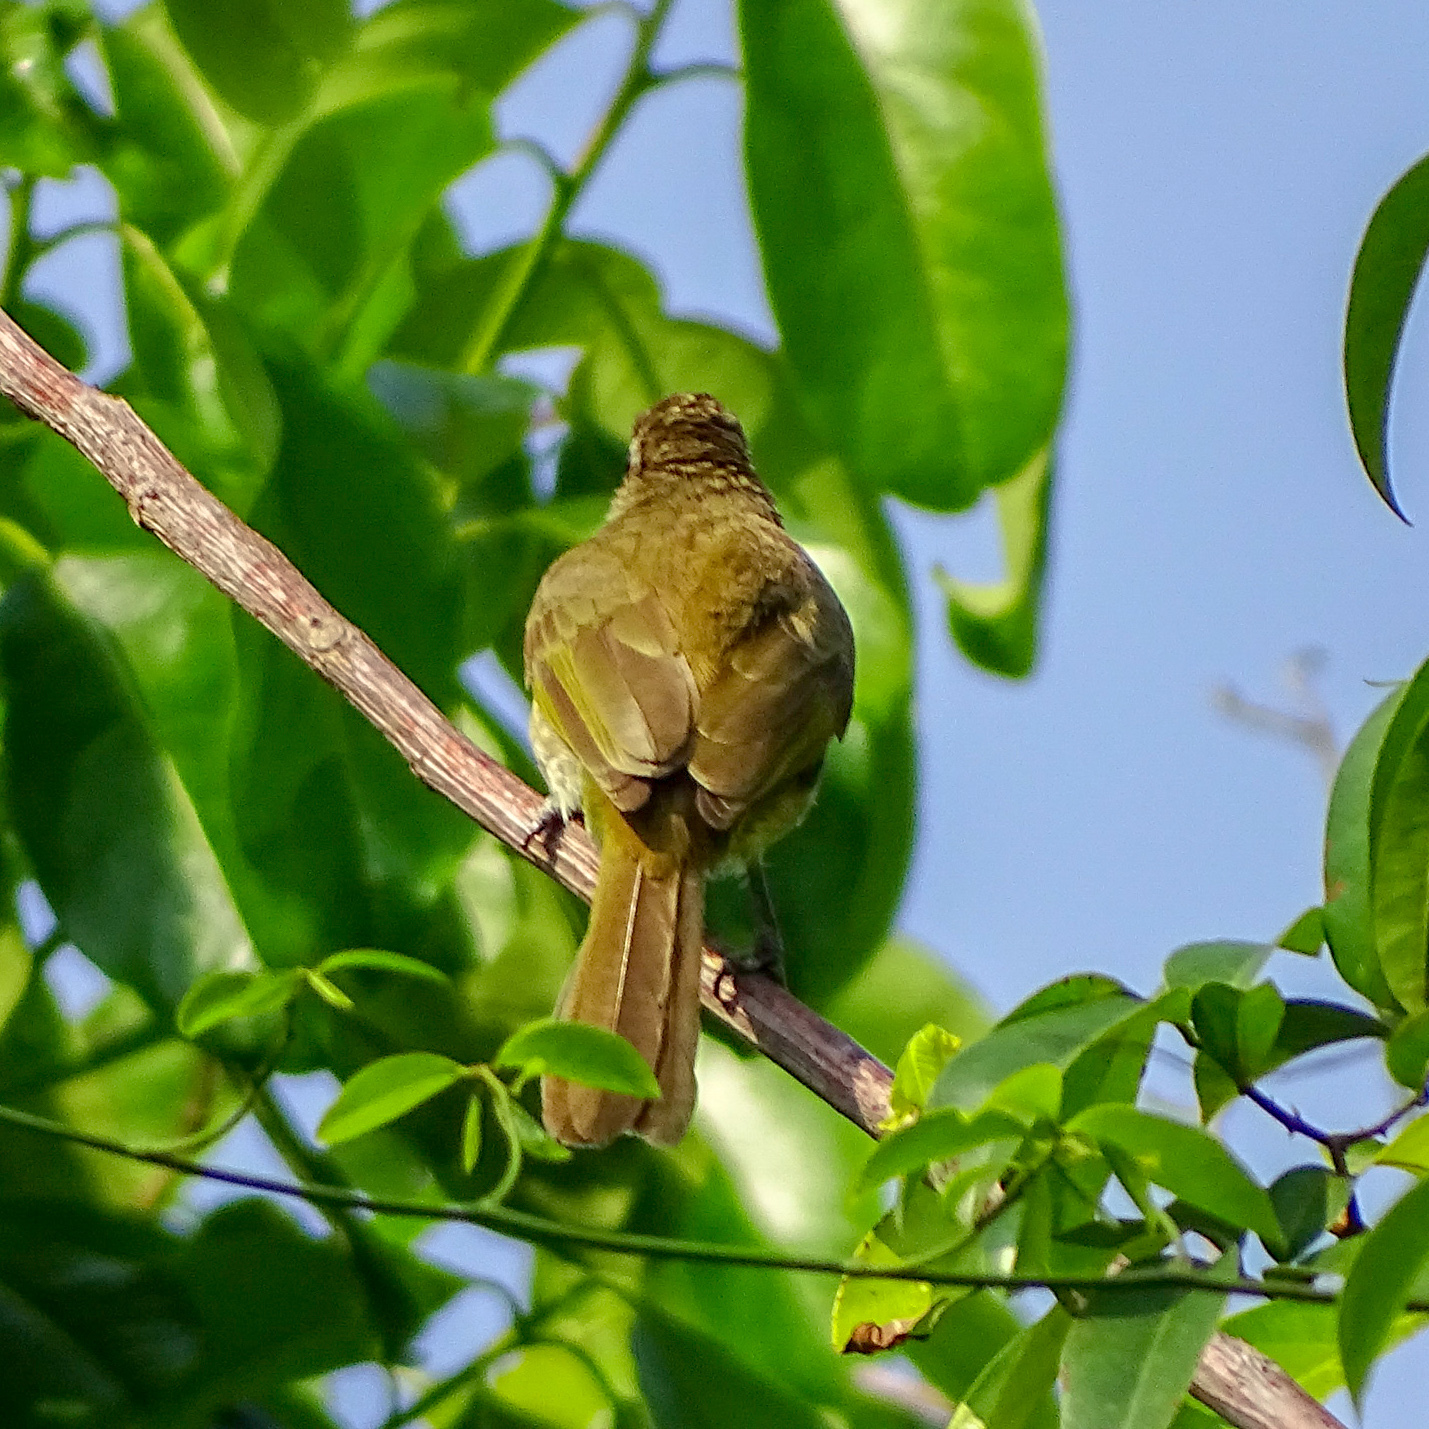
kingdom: Animalia
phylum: Chordata
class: Aves
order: Passeriformes
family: Pycnonotidae
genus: Pycnonotus
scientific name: Pycnonotus luteolus
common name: White-browed bulbul
